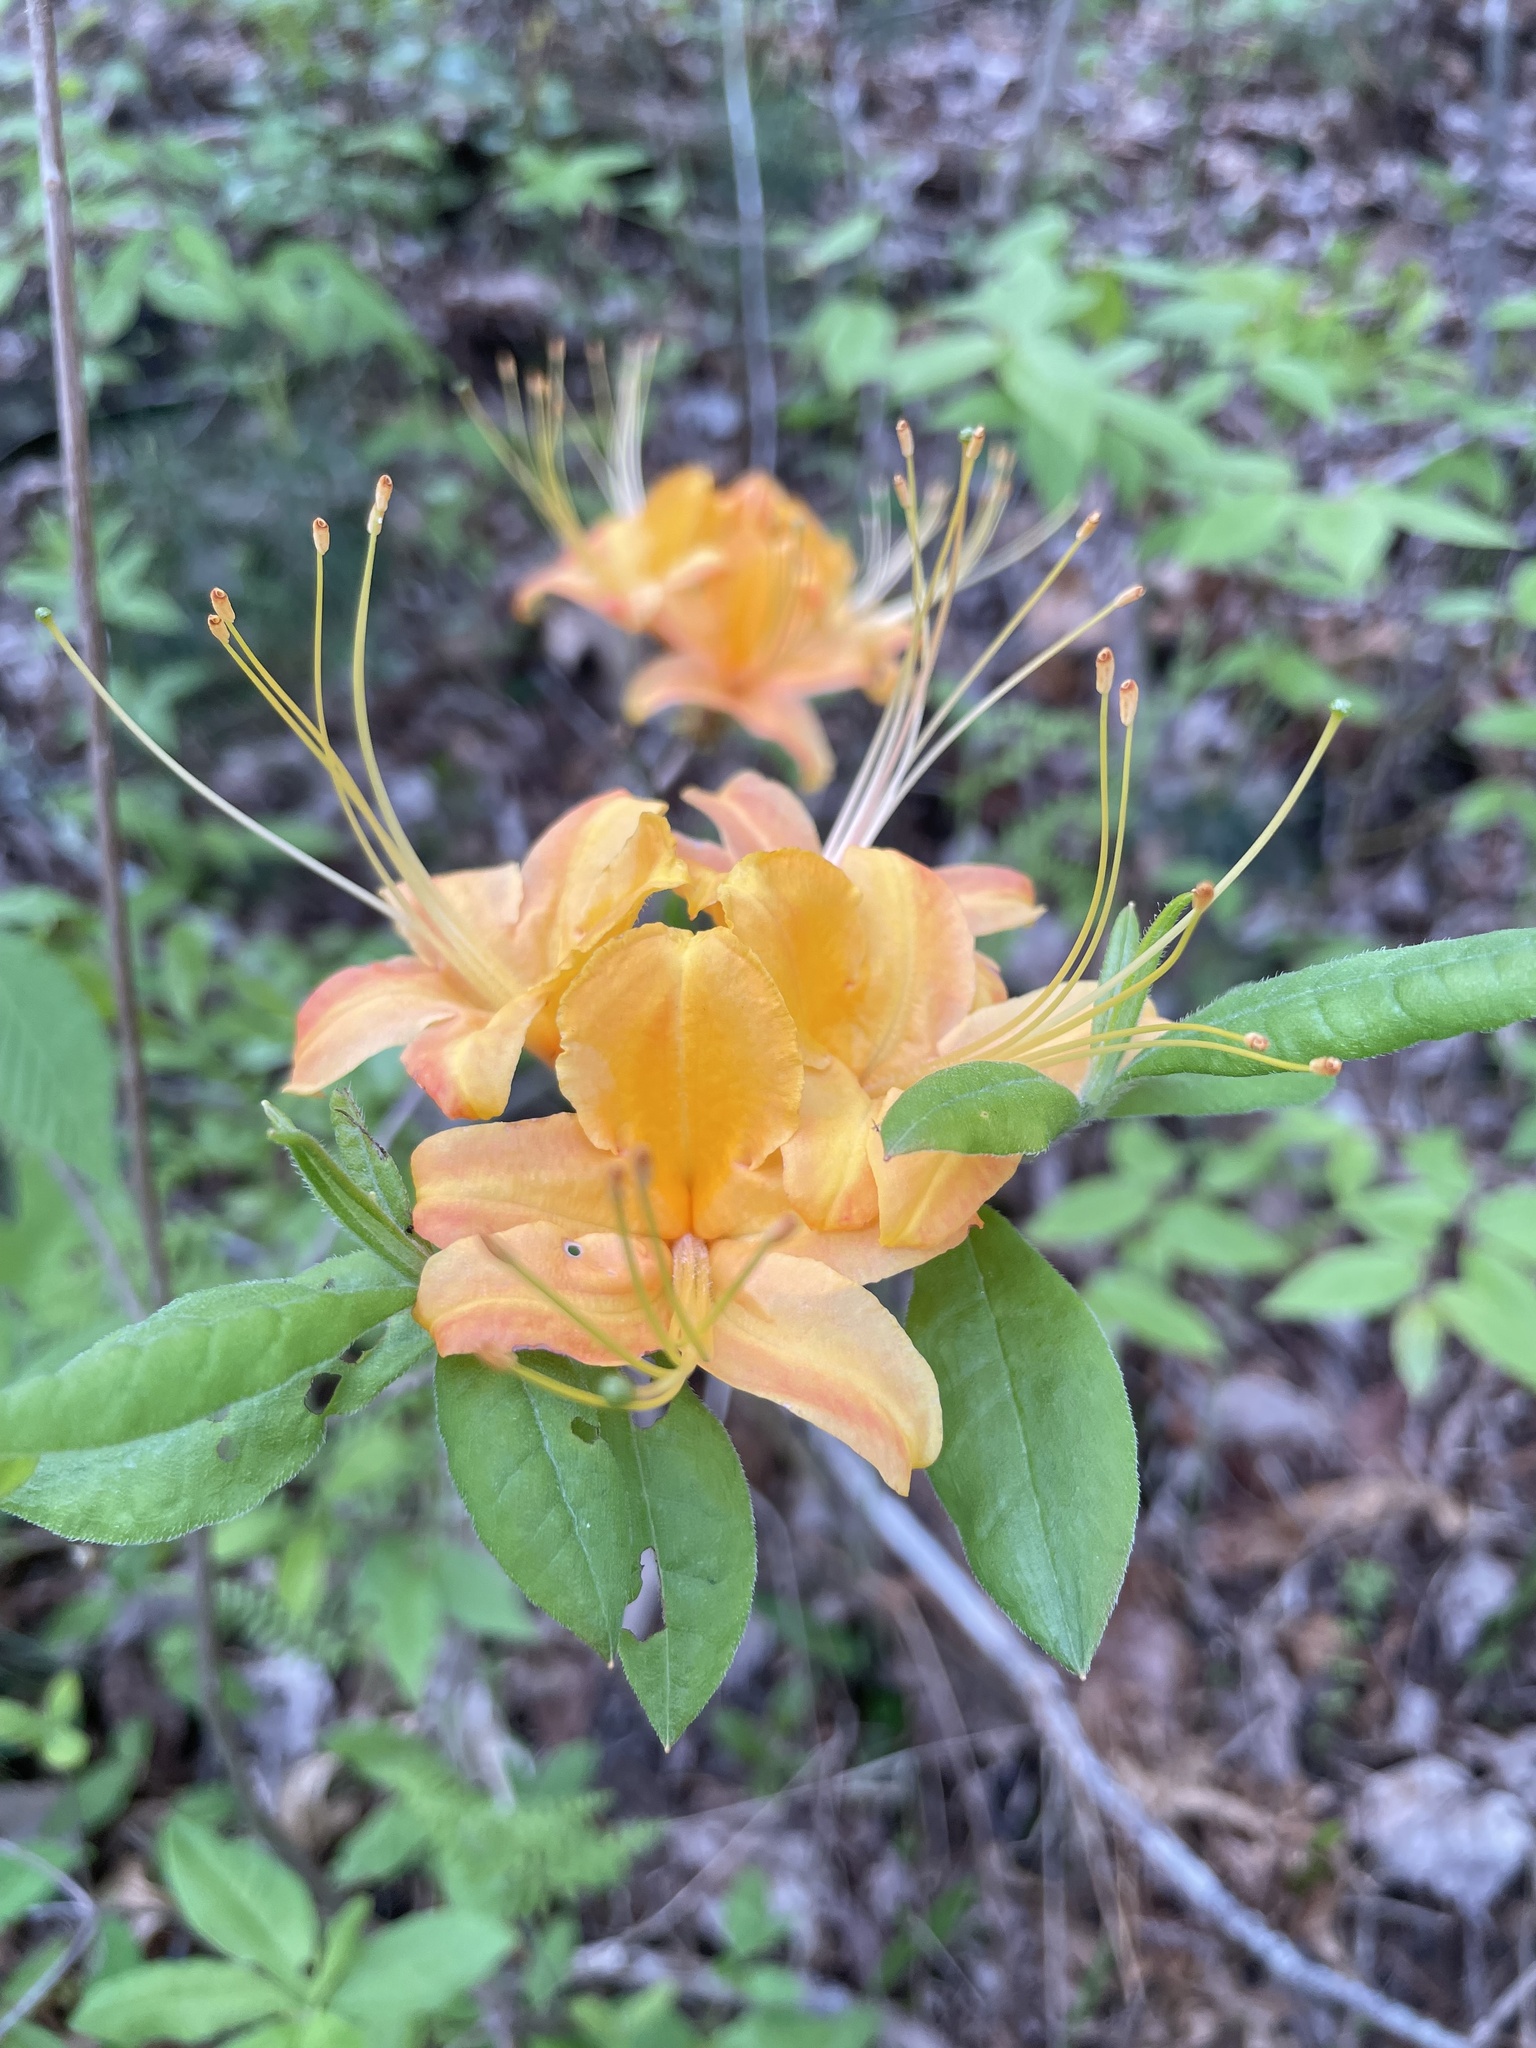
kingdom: Plantae
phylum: Tracheophyta
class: Magnoliopsida
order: Ericales
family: Ericaceae
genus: Rhododendron
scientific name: Rhododendron calendulaceum
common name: Flame azalea
